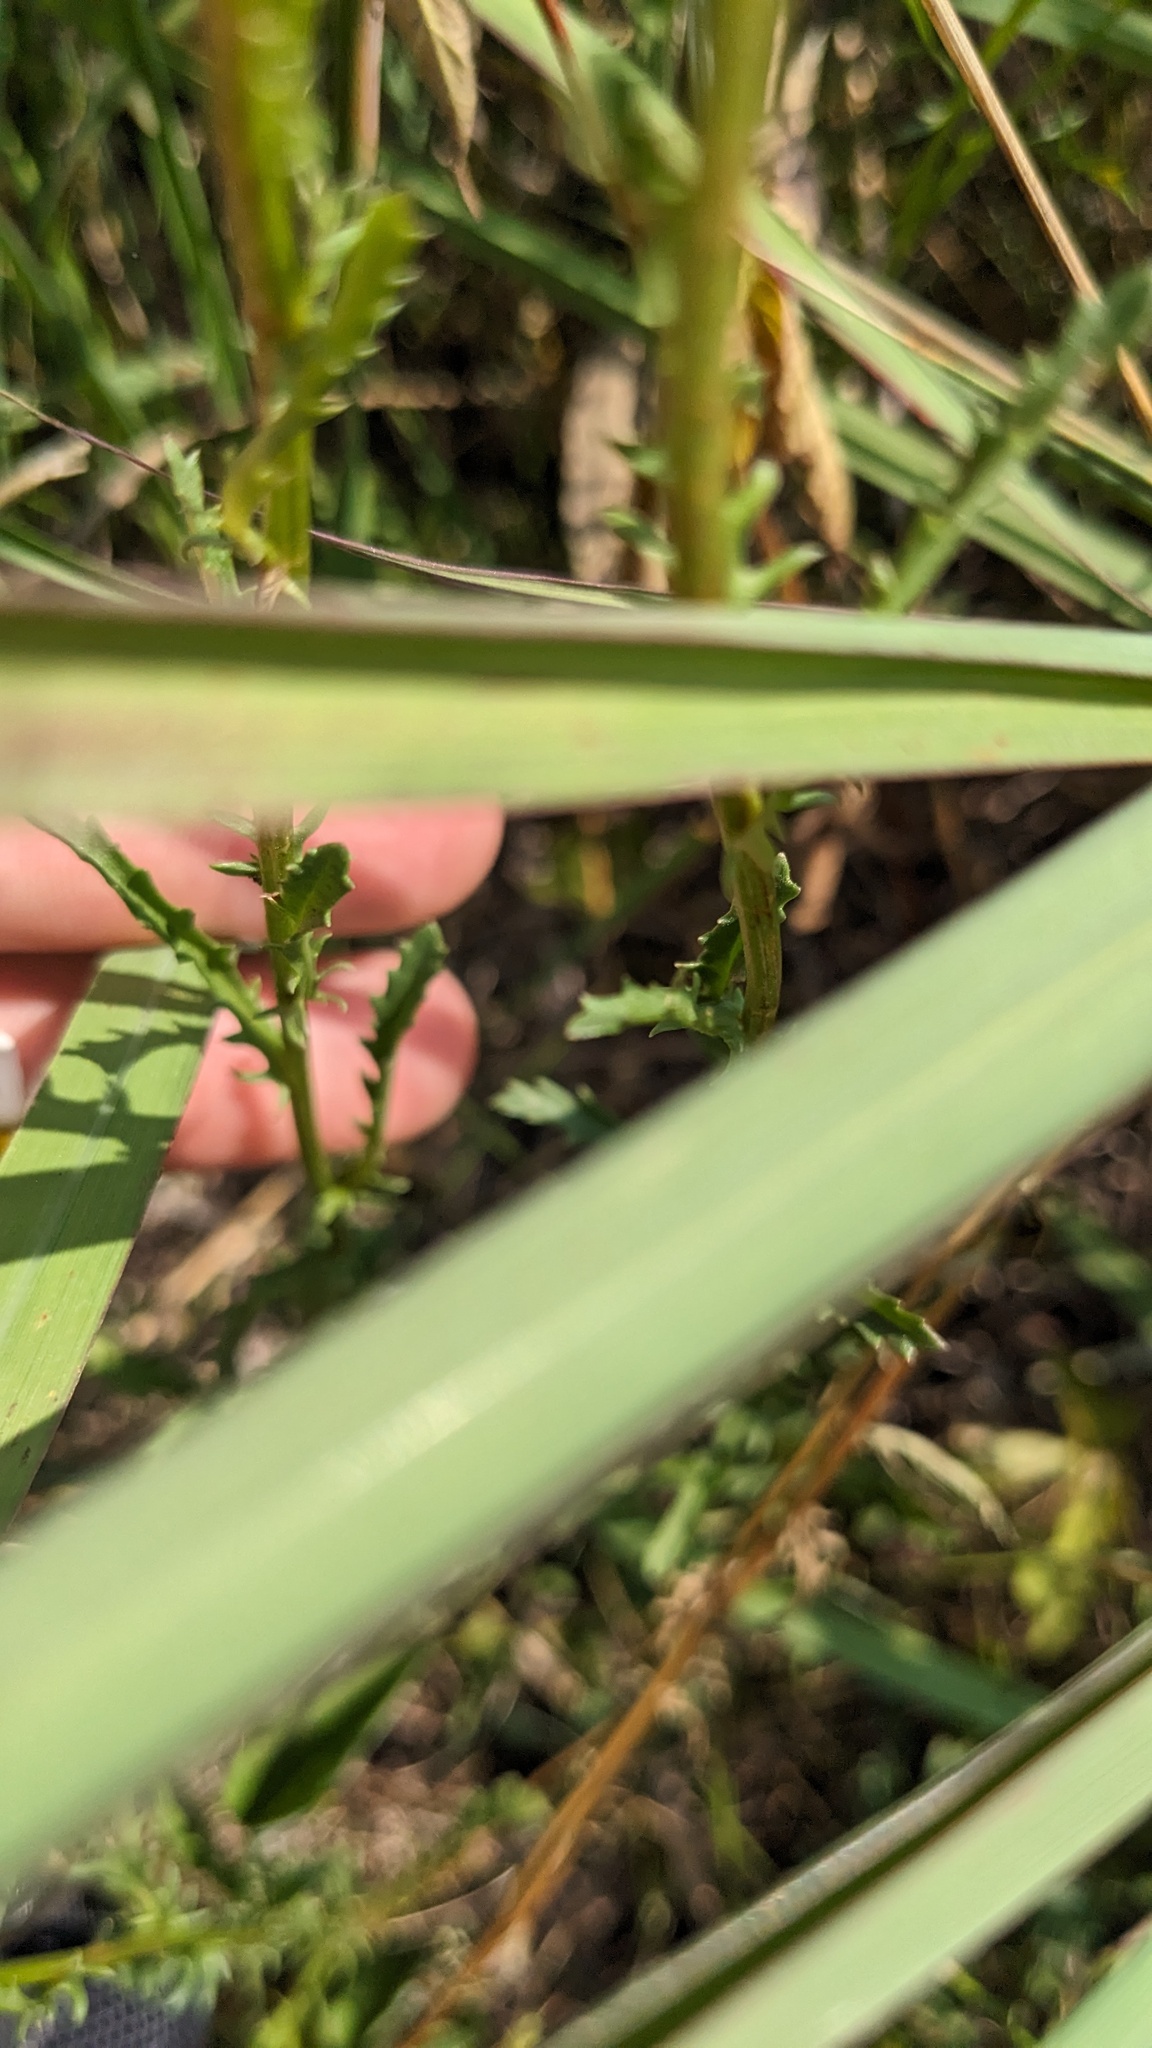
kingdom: Plantae
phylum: Tracheophyta
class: Magnoliopsida
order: Asterales
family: Asteraceae
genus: Leucanthemum
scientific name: Leucanthemum vulgare
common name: Oxeye daisy
